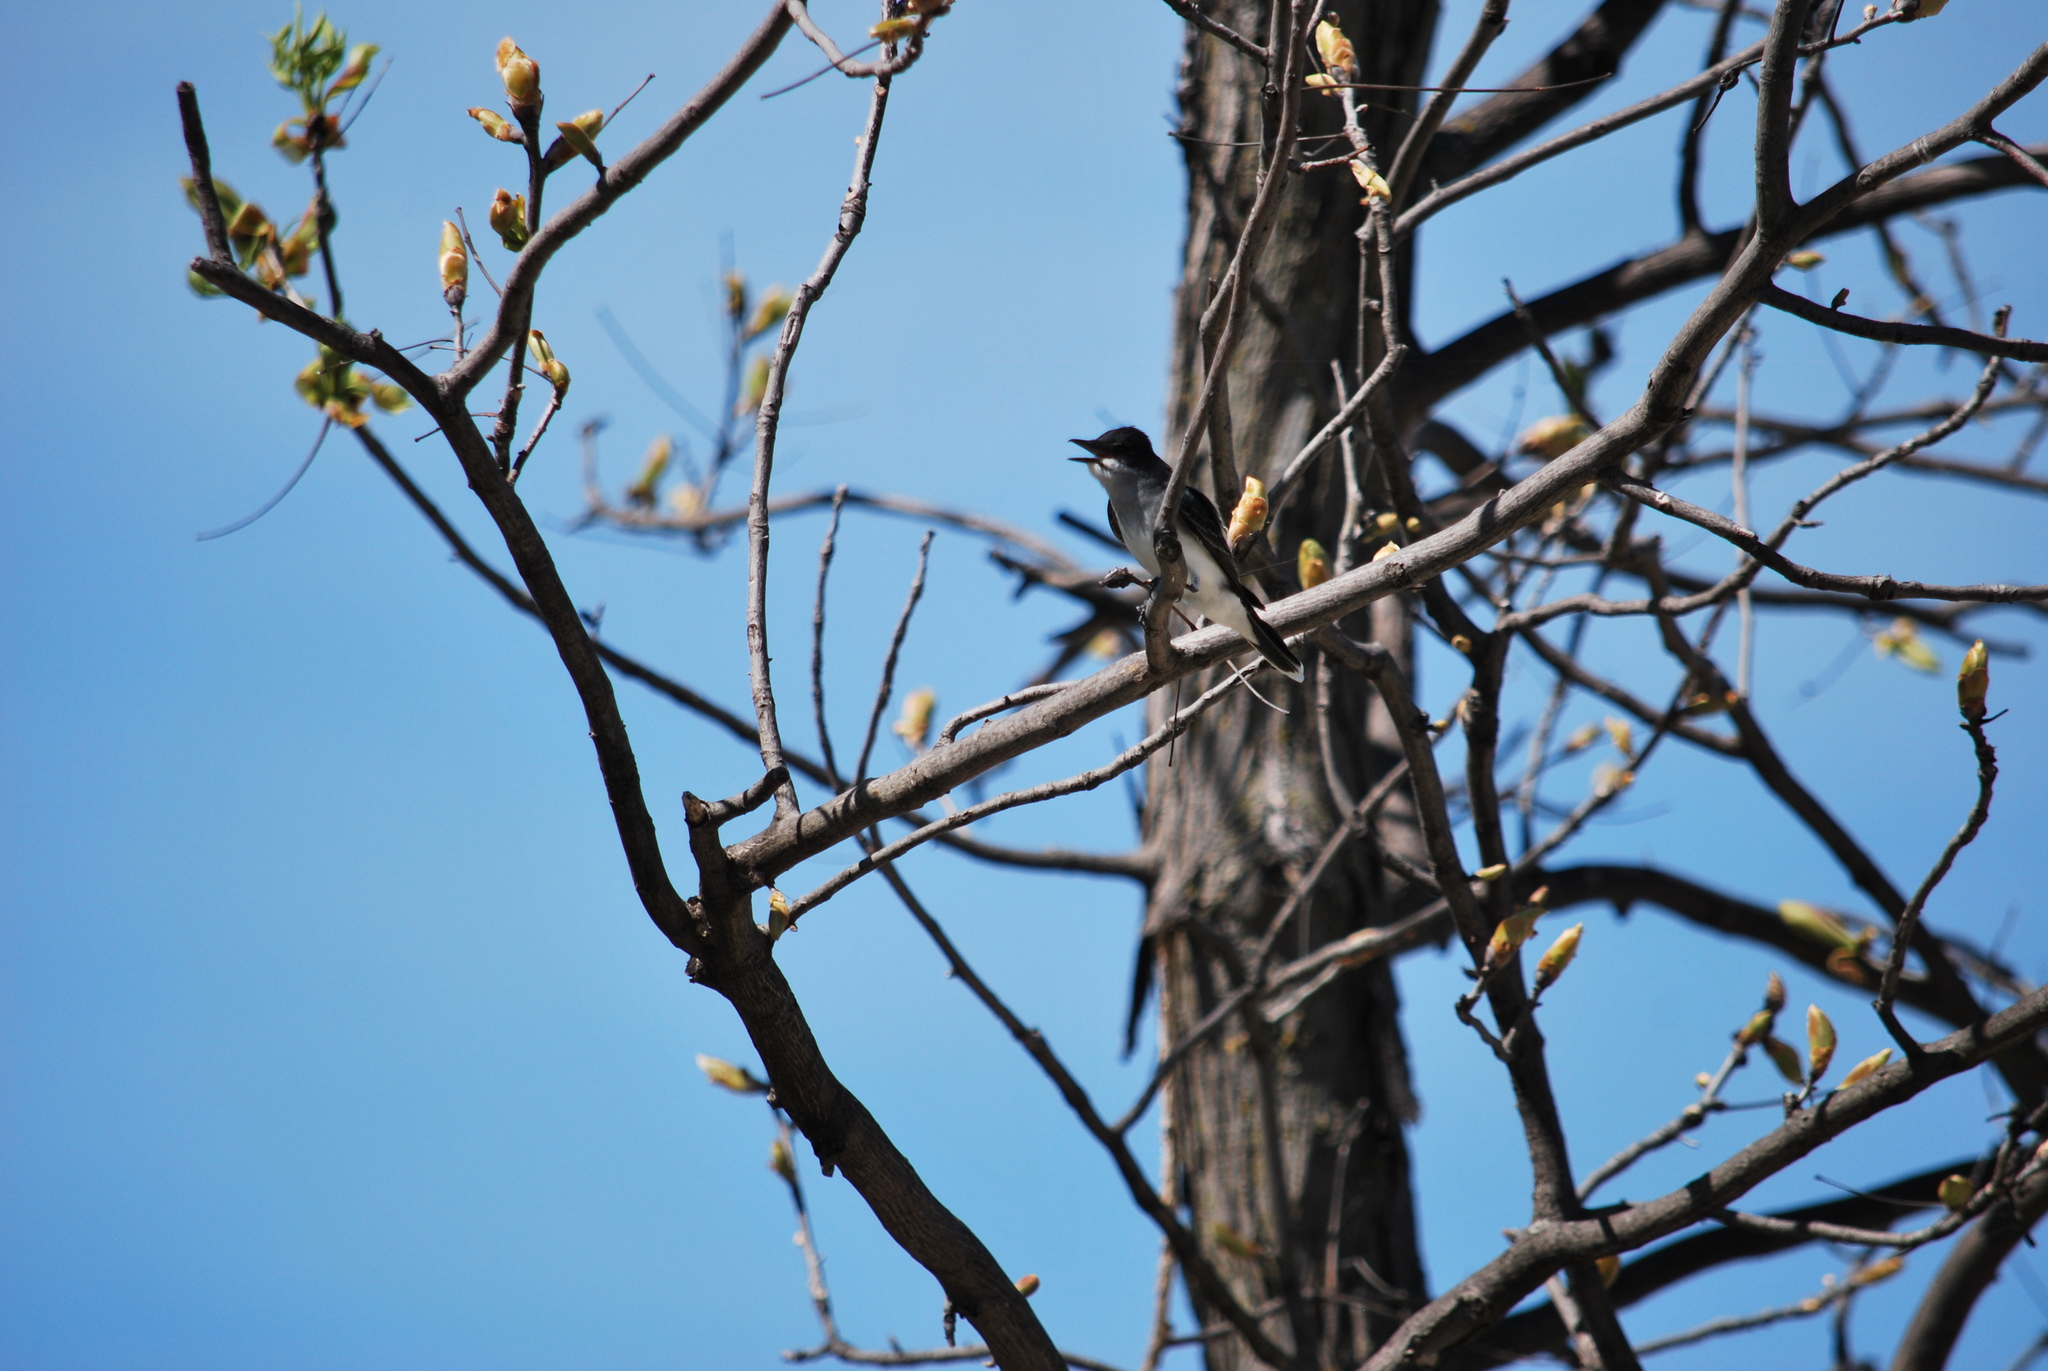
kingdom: Animalia
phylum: Chordata
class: Aves
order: Passeriformes
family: Tyrannidae
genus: Tyrannus
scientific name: Tyrannus tyrannus
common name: Eastern kingbird
